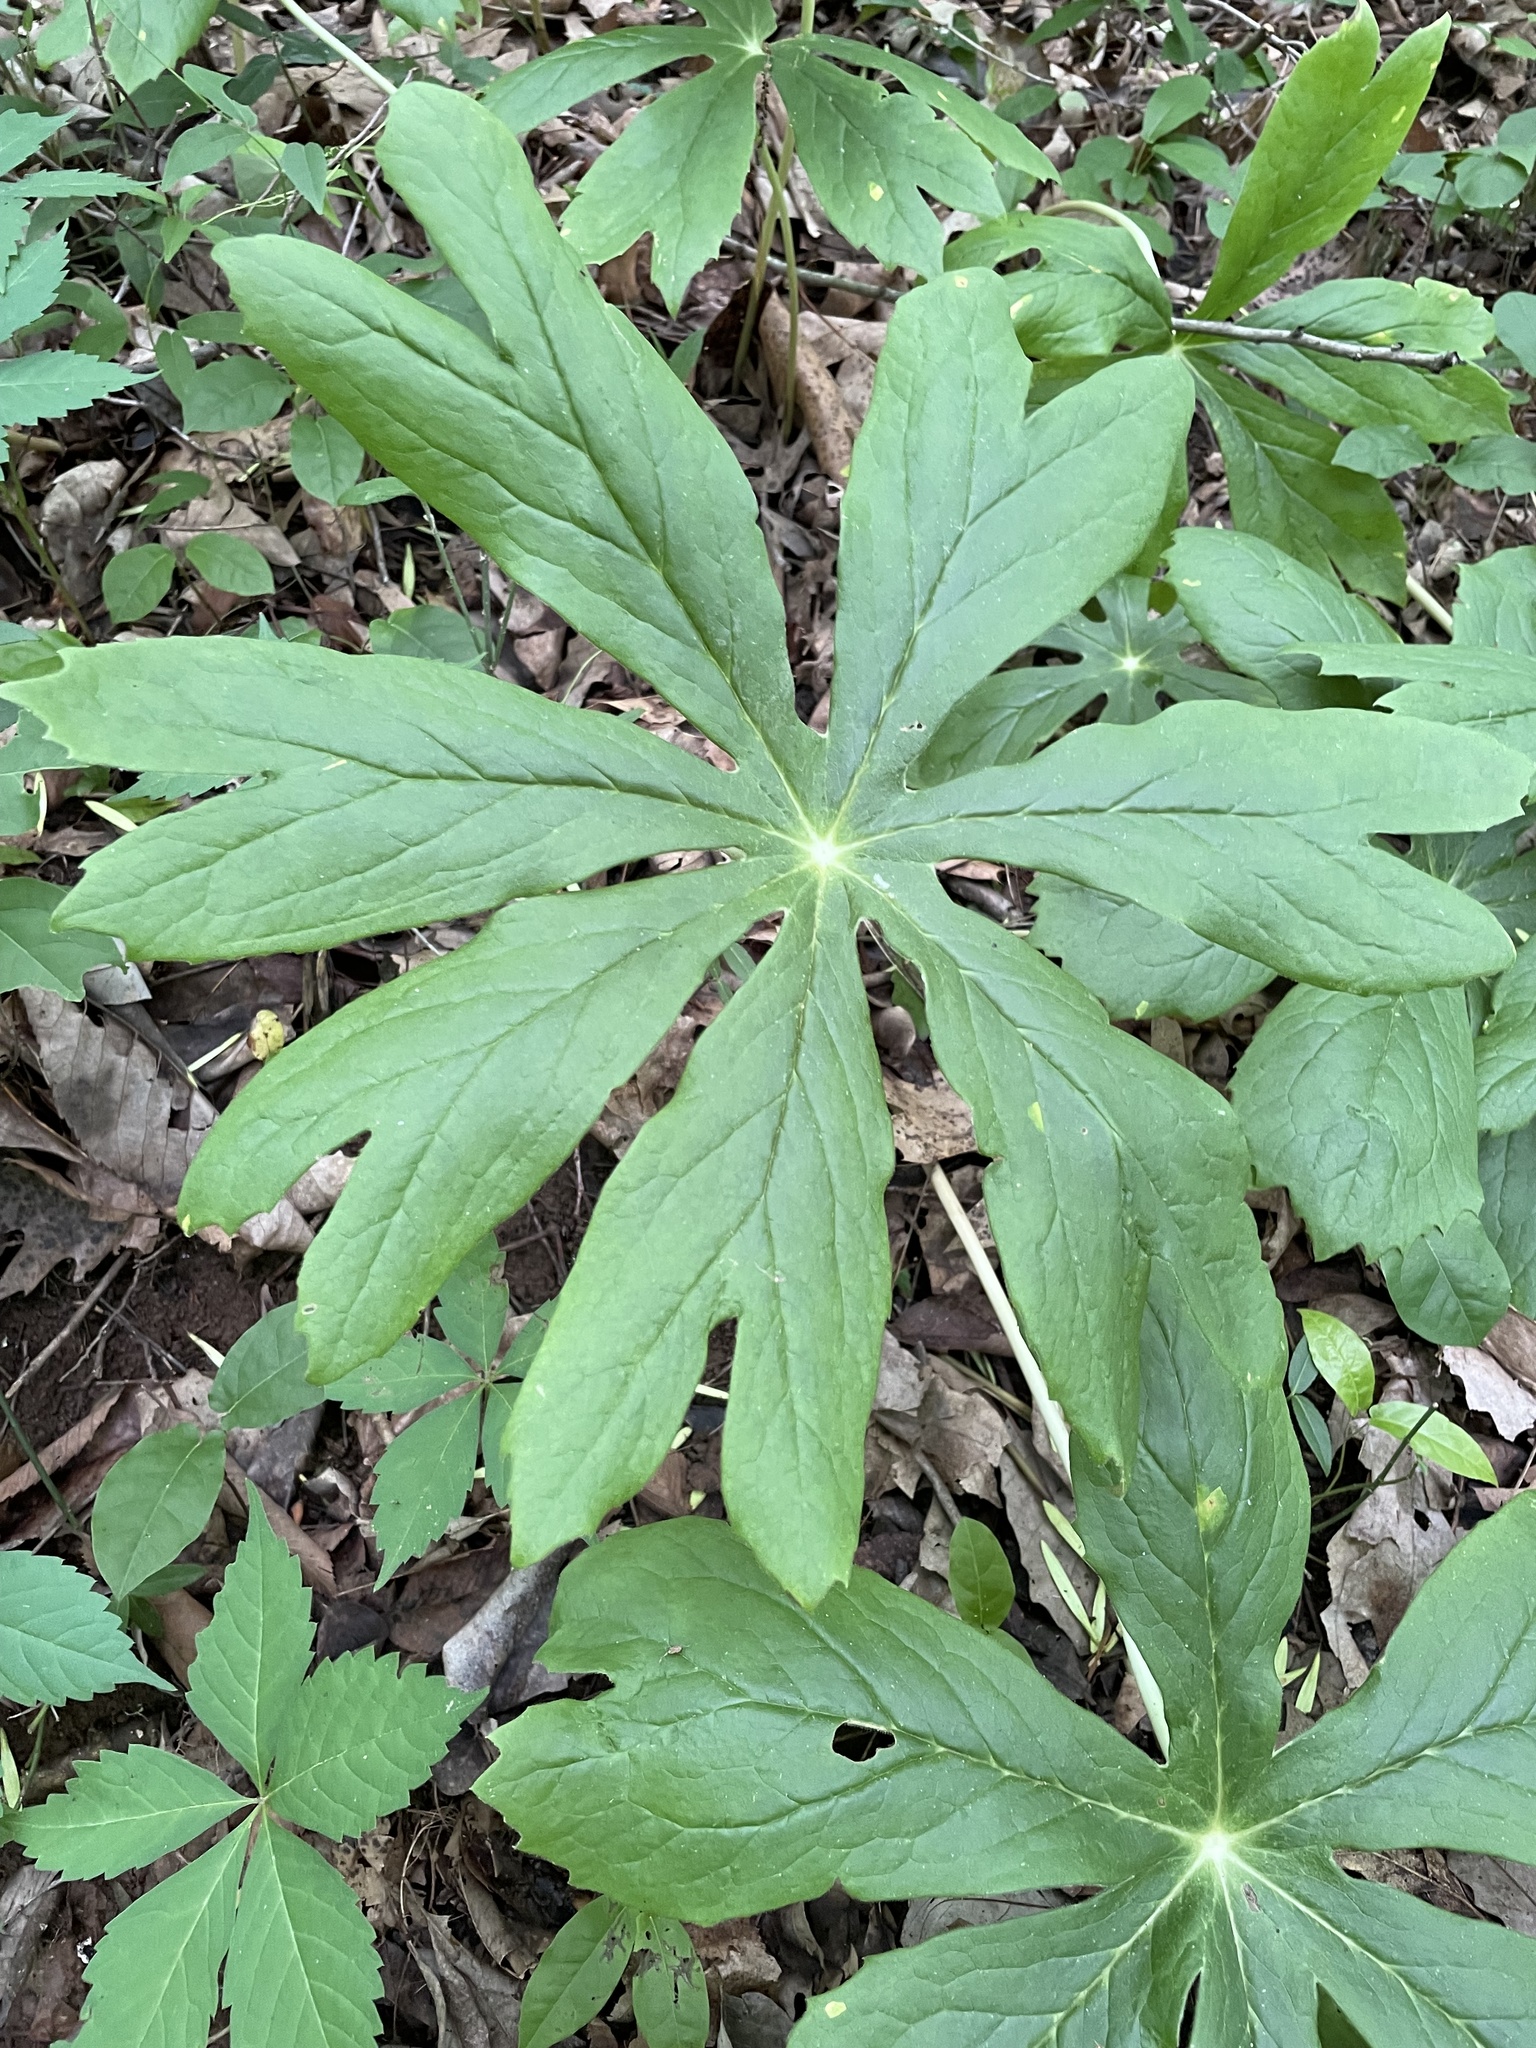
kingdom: Plantae
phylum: Tracheophyta
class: Magnoliopsida
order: Ranunculales
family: Berberidaceae
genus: Podophyllum
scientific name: Podophyllum peltatum
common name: Wild mandrake
